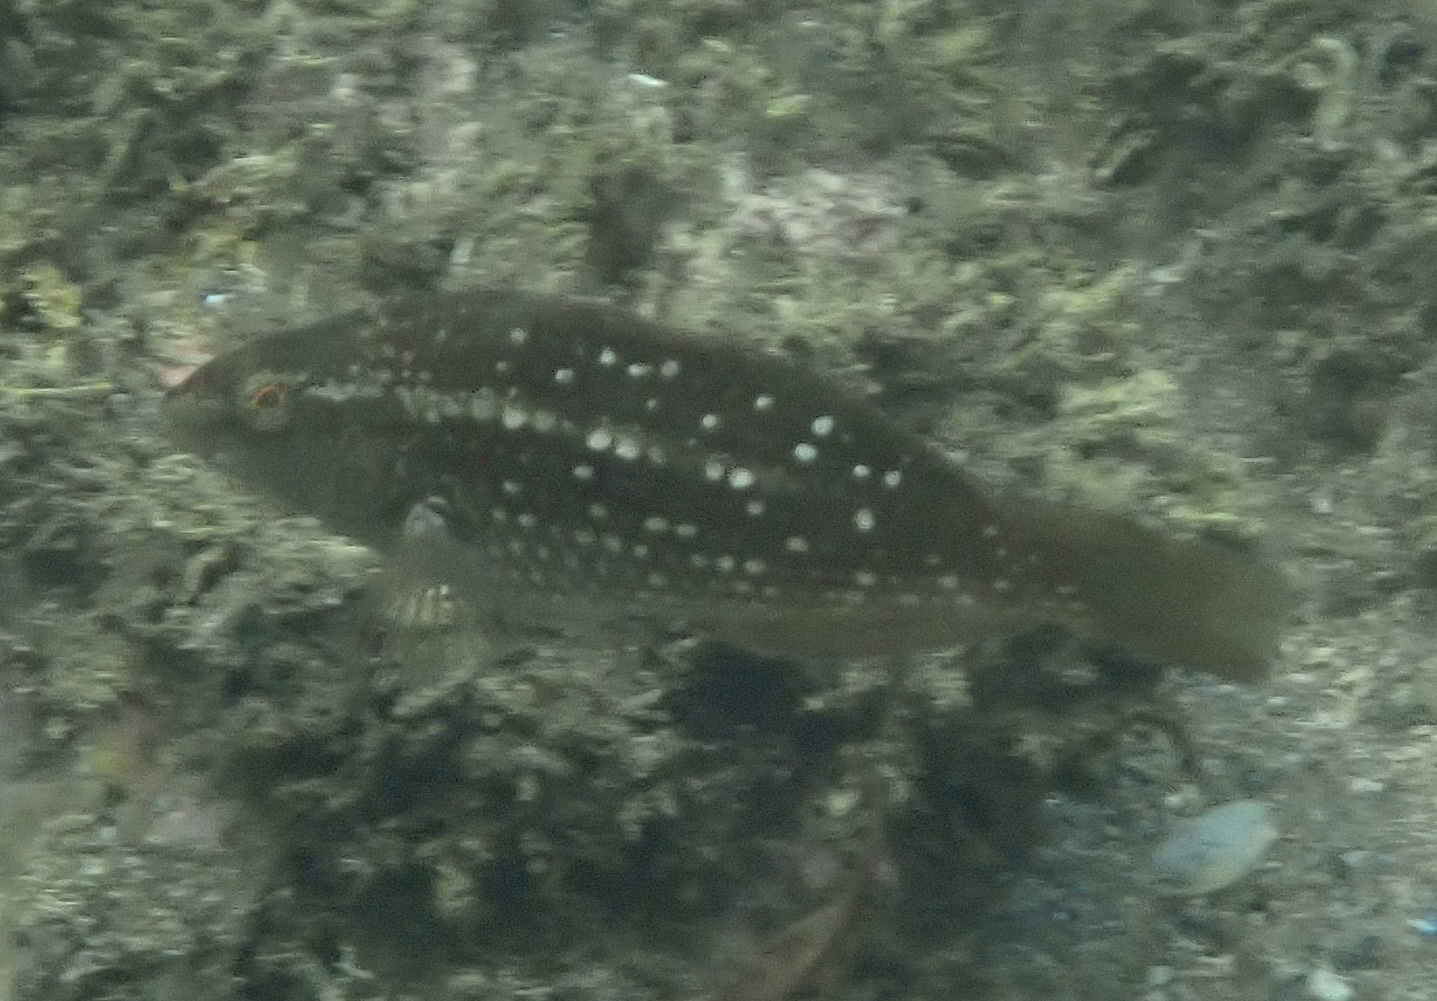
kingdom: Animalia
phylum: Chordata
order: Perciformes
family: Labridae
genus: Notolabrus
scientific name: Notolabrus gymnogenis
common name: Crimson banded wrasse
